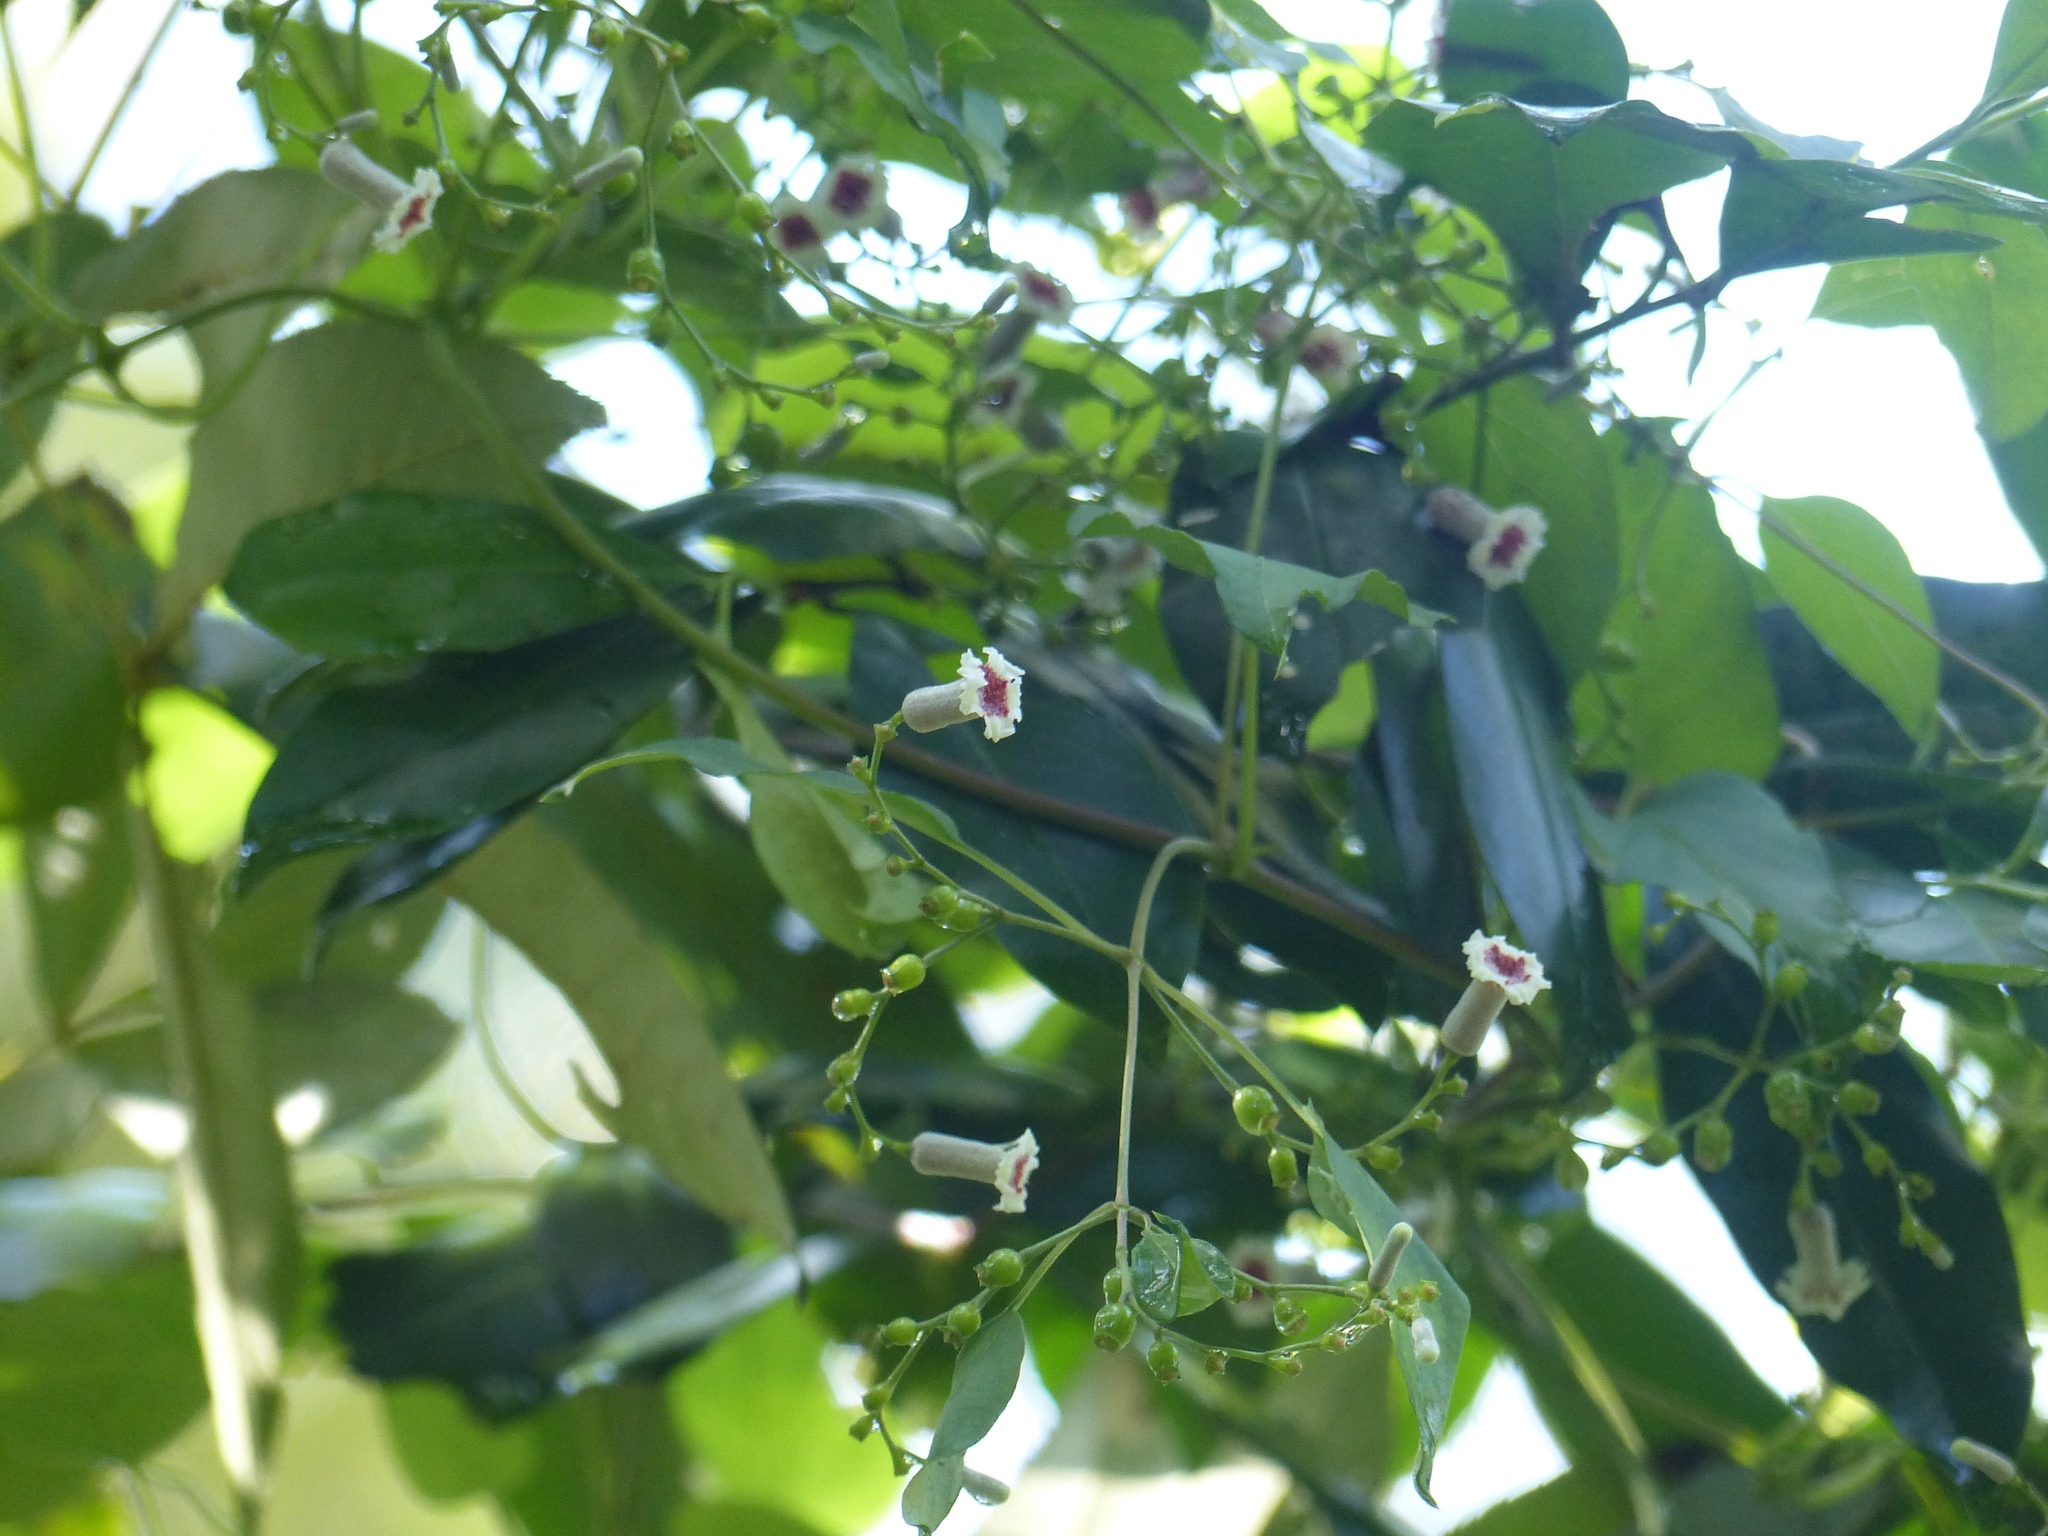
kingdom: Plantae
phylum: Tracheophyta
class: Magnoliopsida
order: Gentianales
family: Rubiaceae
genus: Paederia
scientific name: Paederia foetida
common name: Stinkvine
